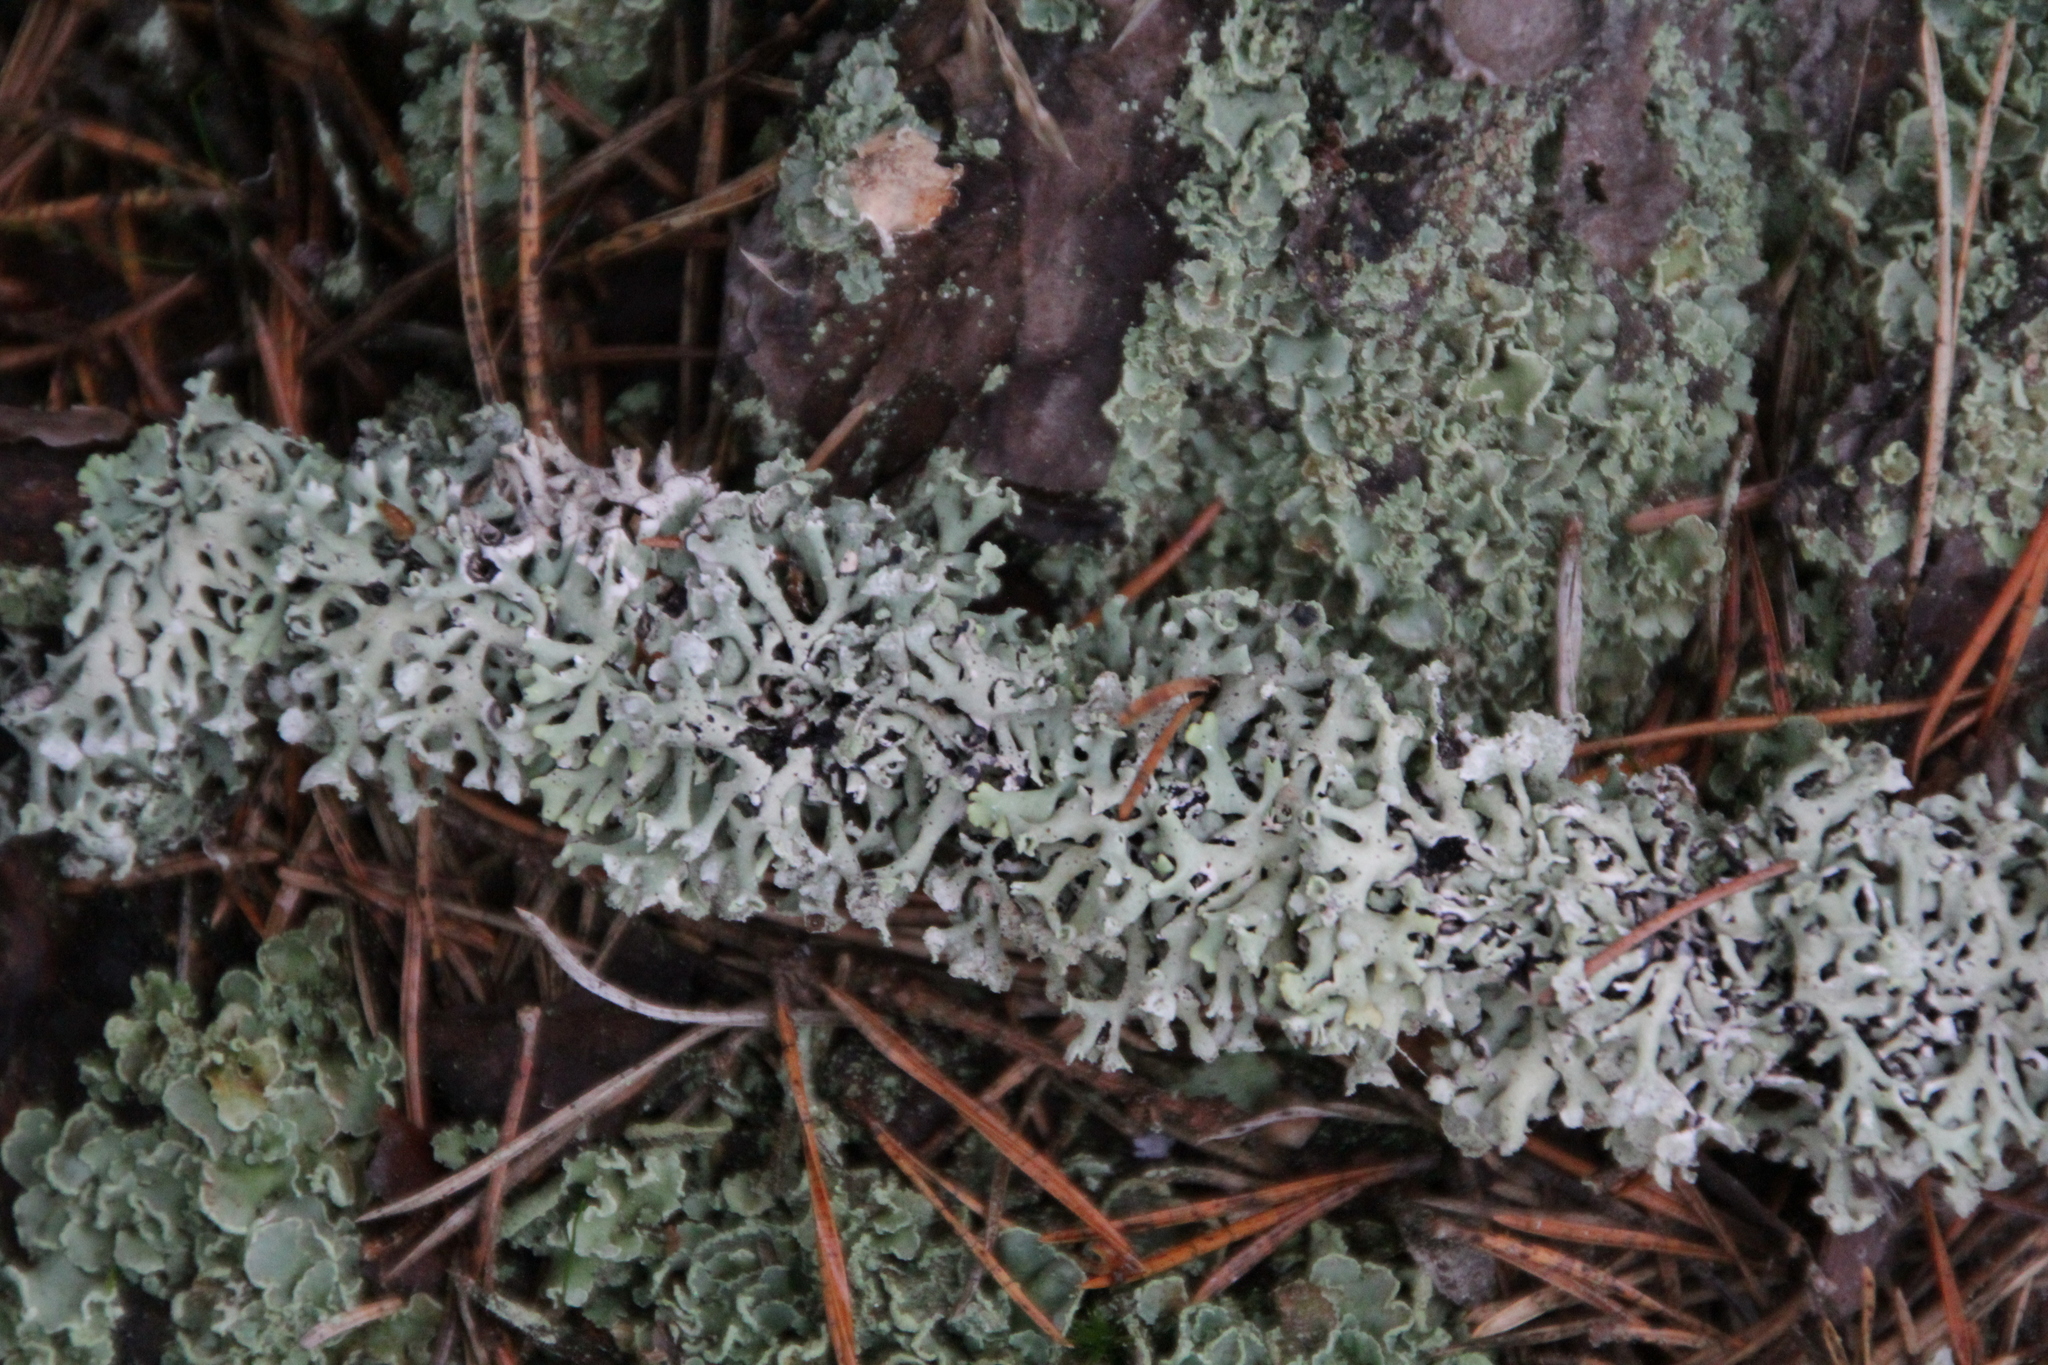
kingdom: Fungi
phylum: Ascomycota
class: Lecanoromycetes
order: Lecanorales
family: Parmeliaceae
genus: Hypogymnia
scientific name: Hypogymnia physodes
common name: Dark crottle
